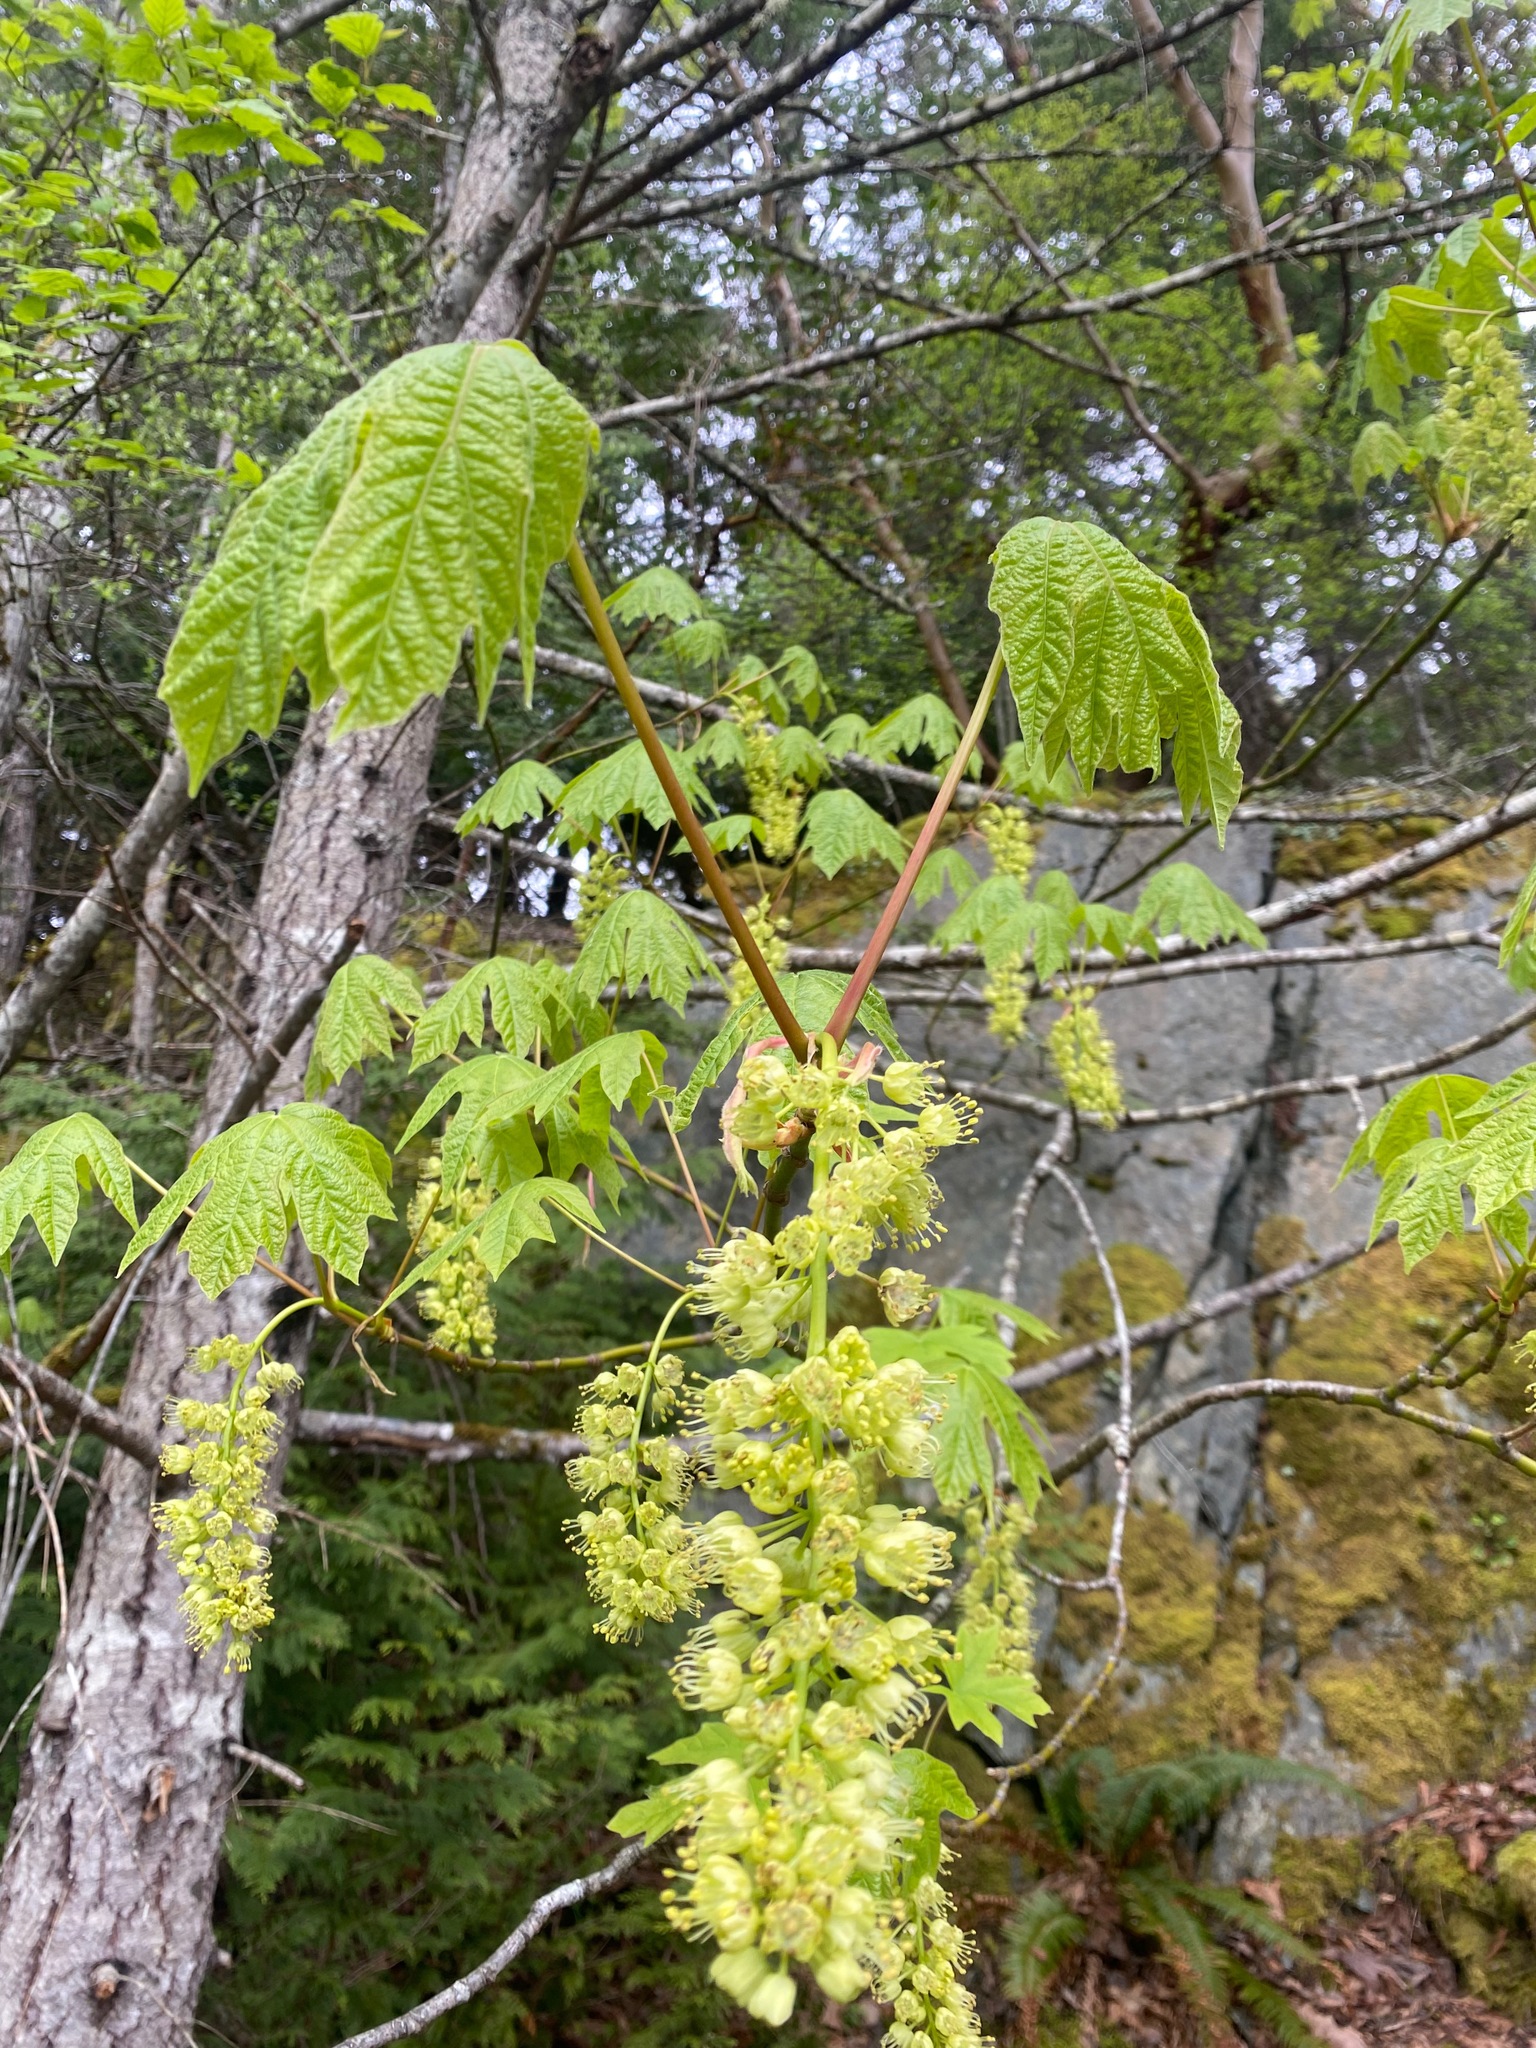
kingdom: Plantae
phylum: Tracheophyta
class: Magnoliopsida
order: Sapindales
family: Sapindaceae
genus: Acer
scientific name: Acer macrophyllum
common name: Oregon maple
